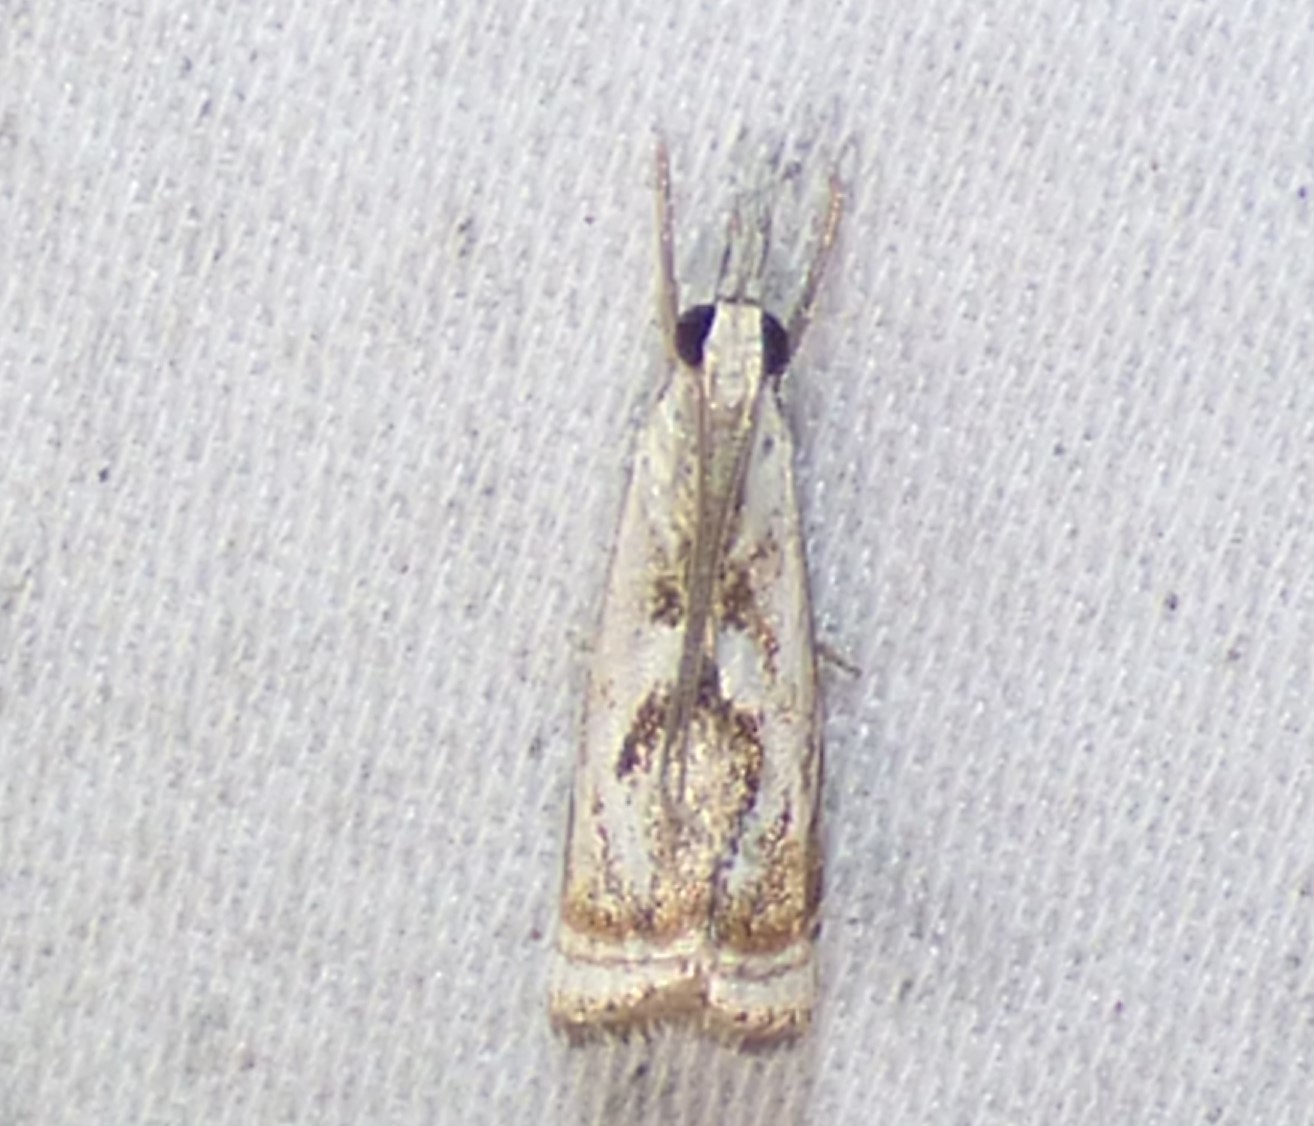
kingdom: Animalia
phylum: Arthropoda
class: Insecta
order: Lepidoptera
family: Crambidae
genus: Microcrambus
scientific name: Microcrambus elegans
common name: Elegant grass-veneer
